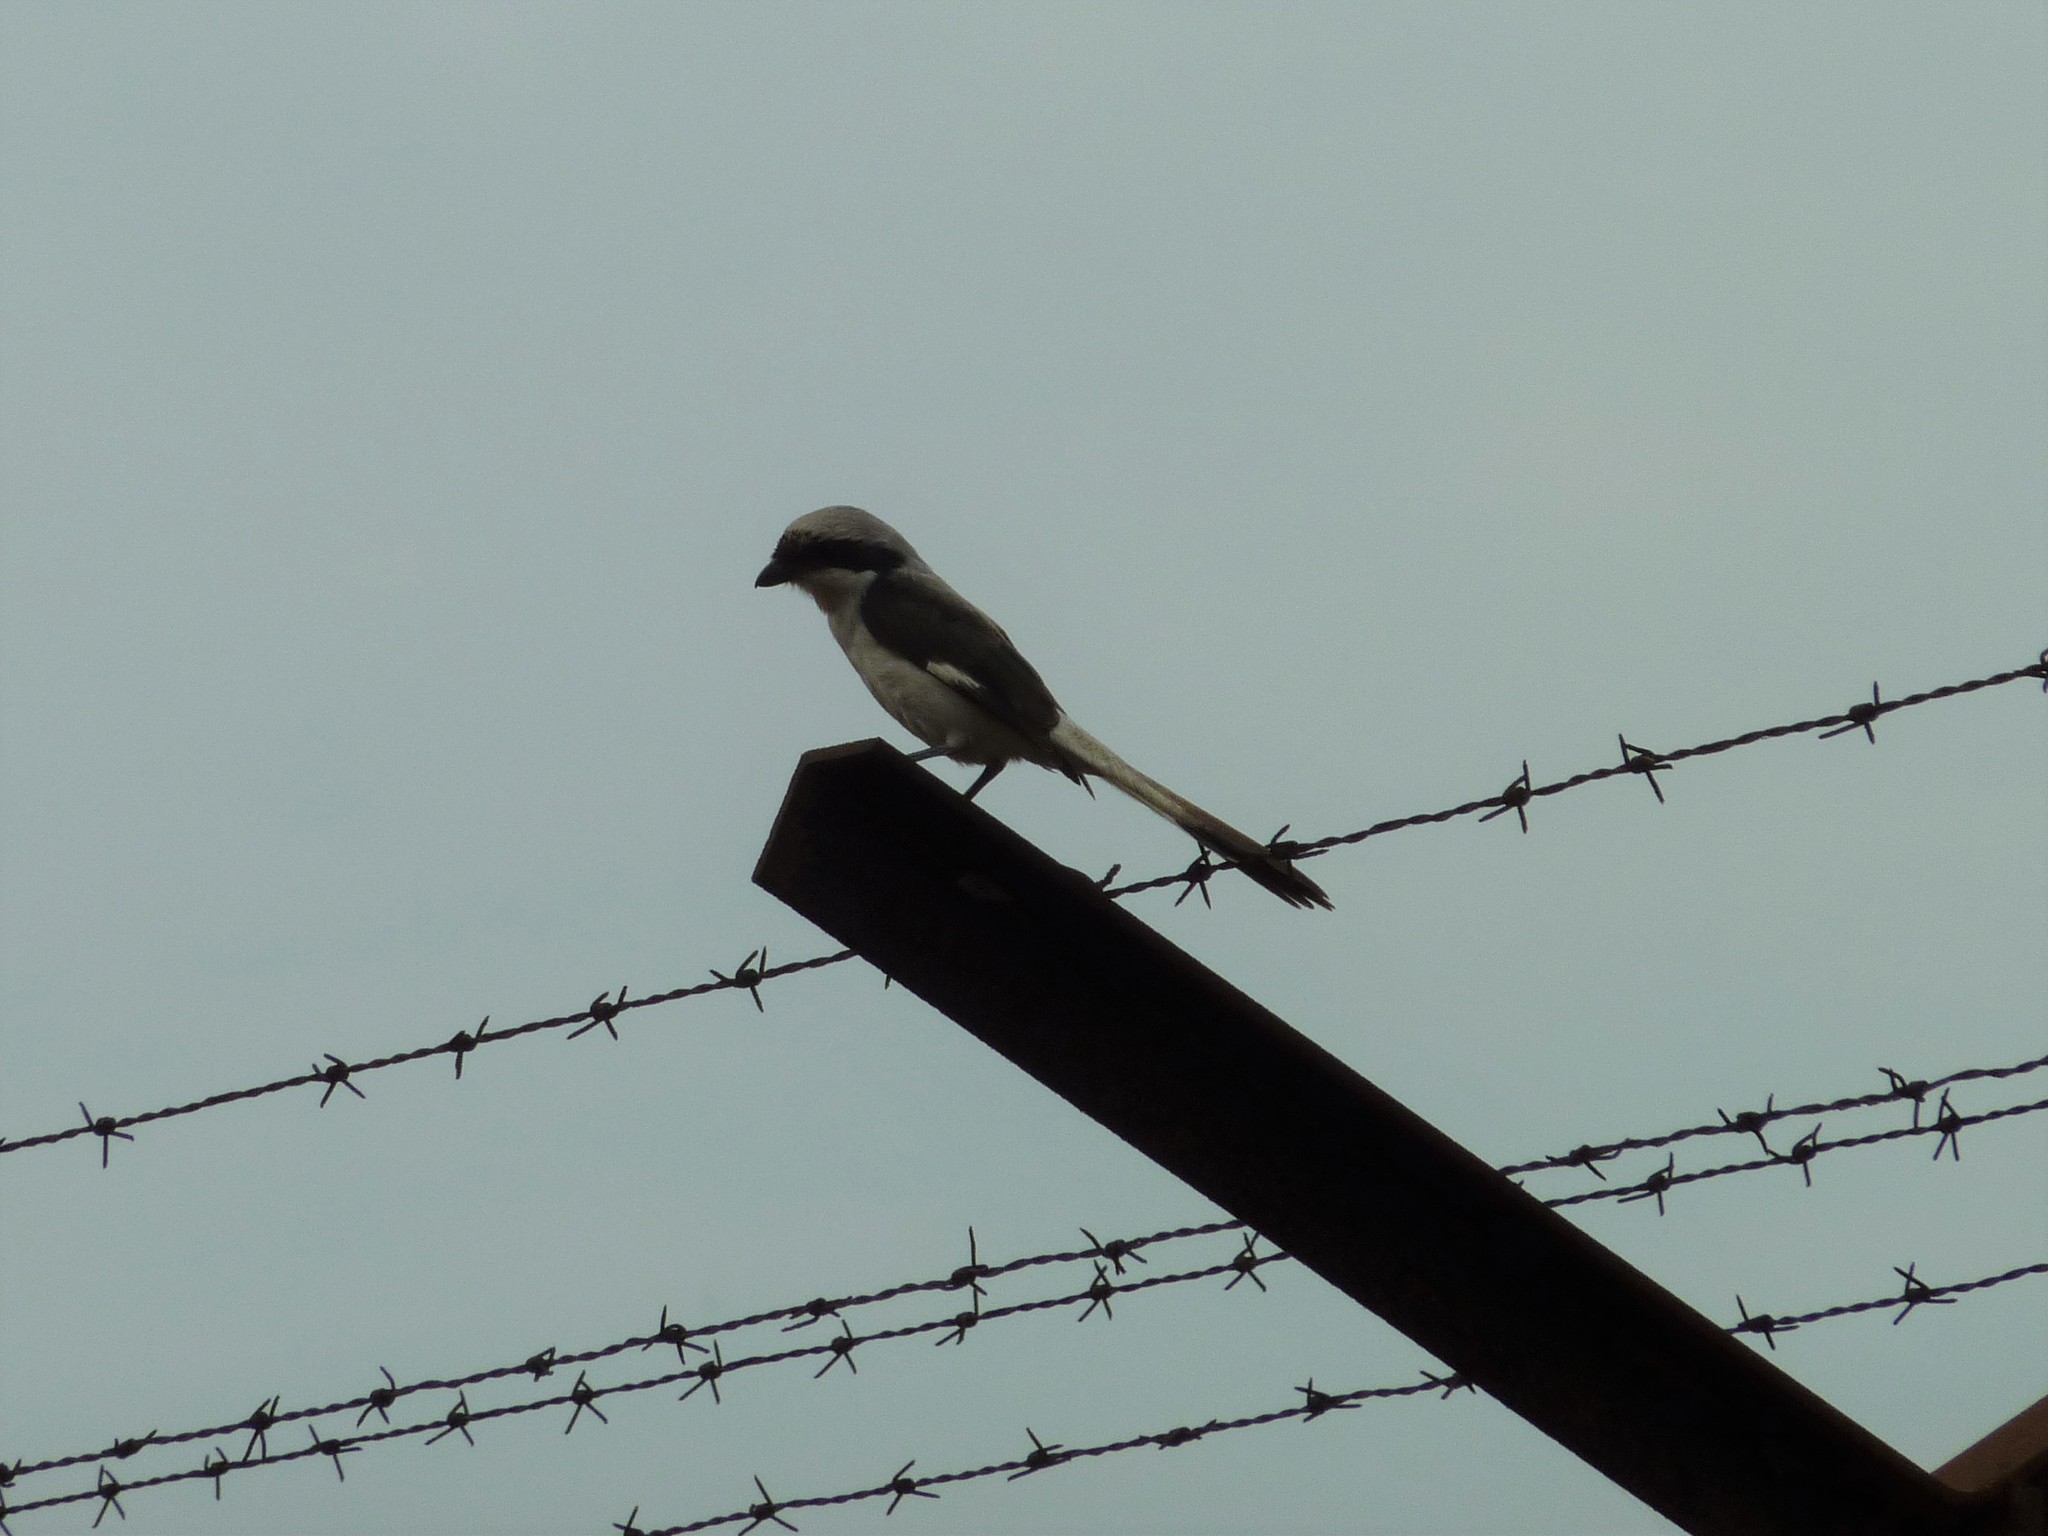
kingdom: Animalia
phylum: Chordata
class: Aves
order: Passeriformes
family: Laniidae
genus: Lanius
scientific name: Lanius excubitoroides
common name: Grey-backed fiscal
